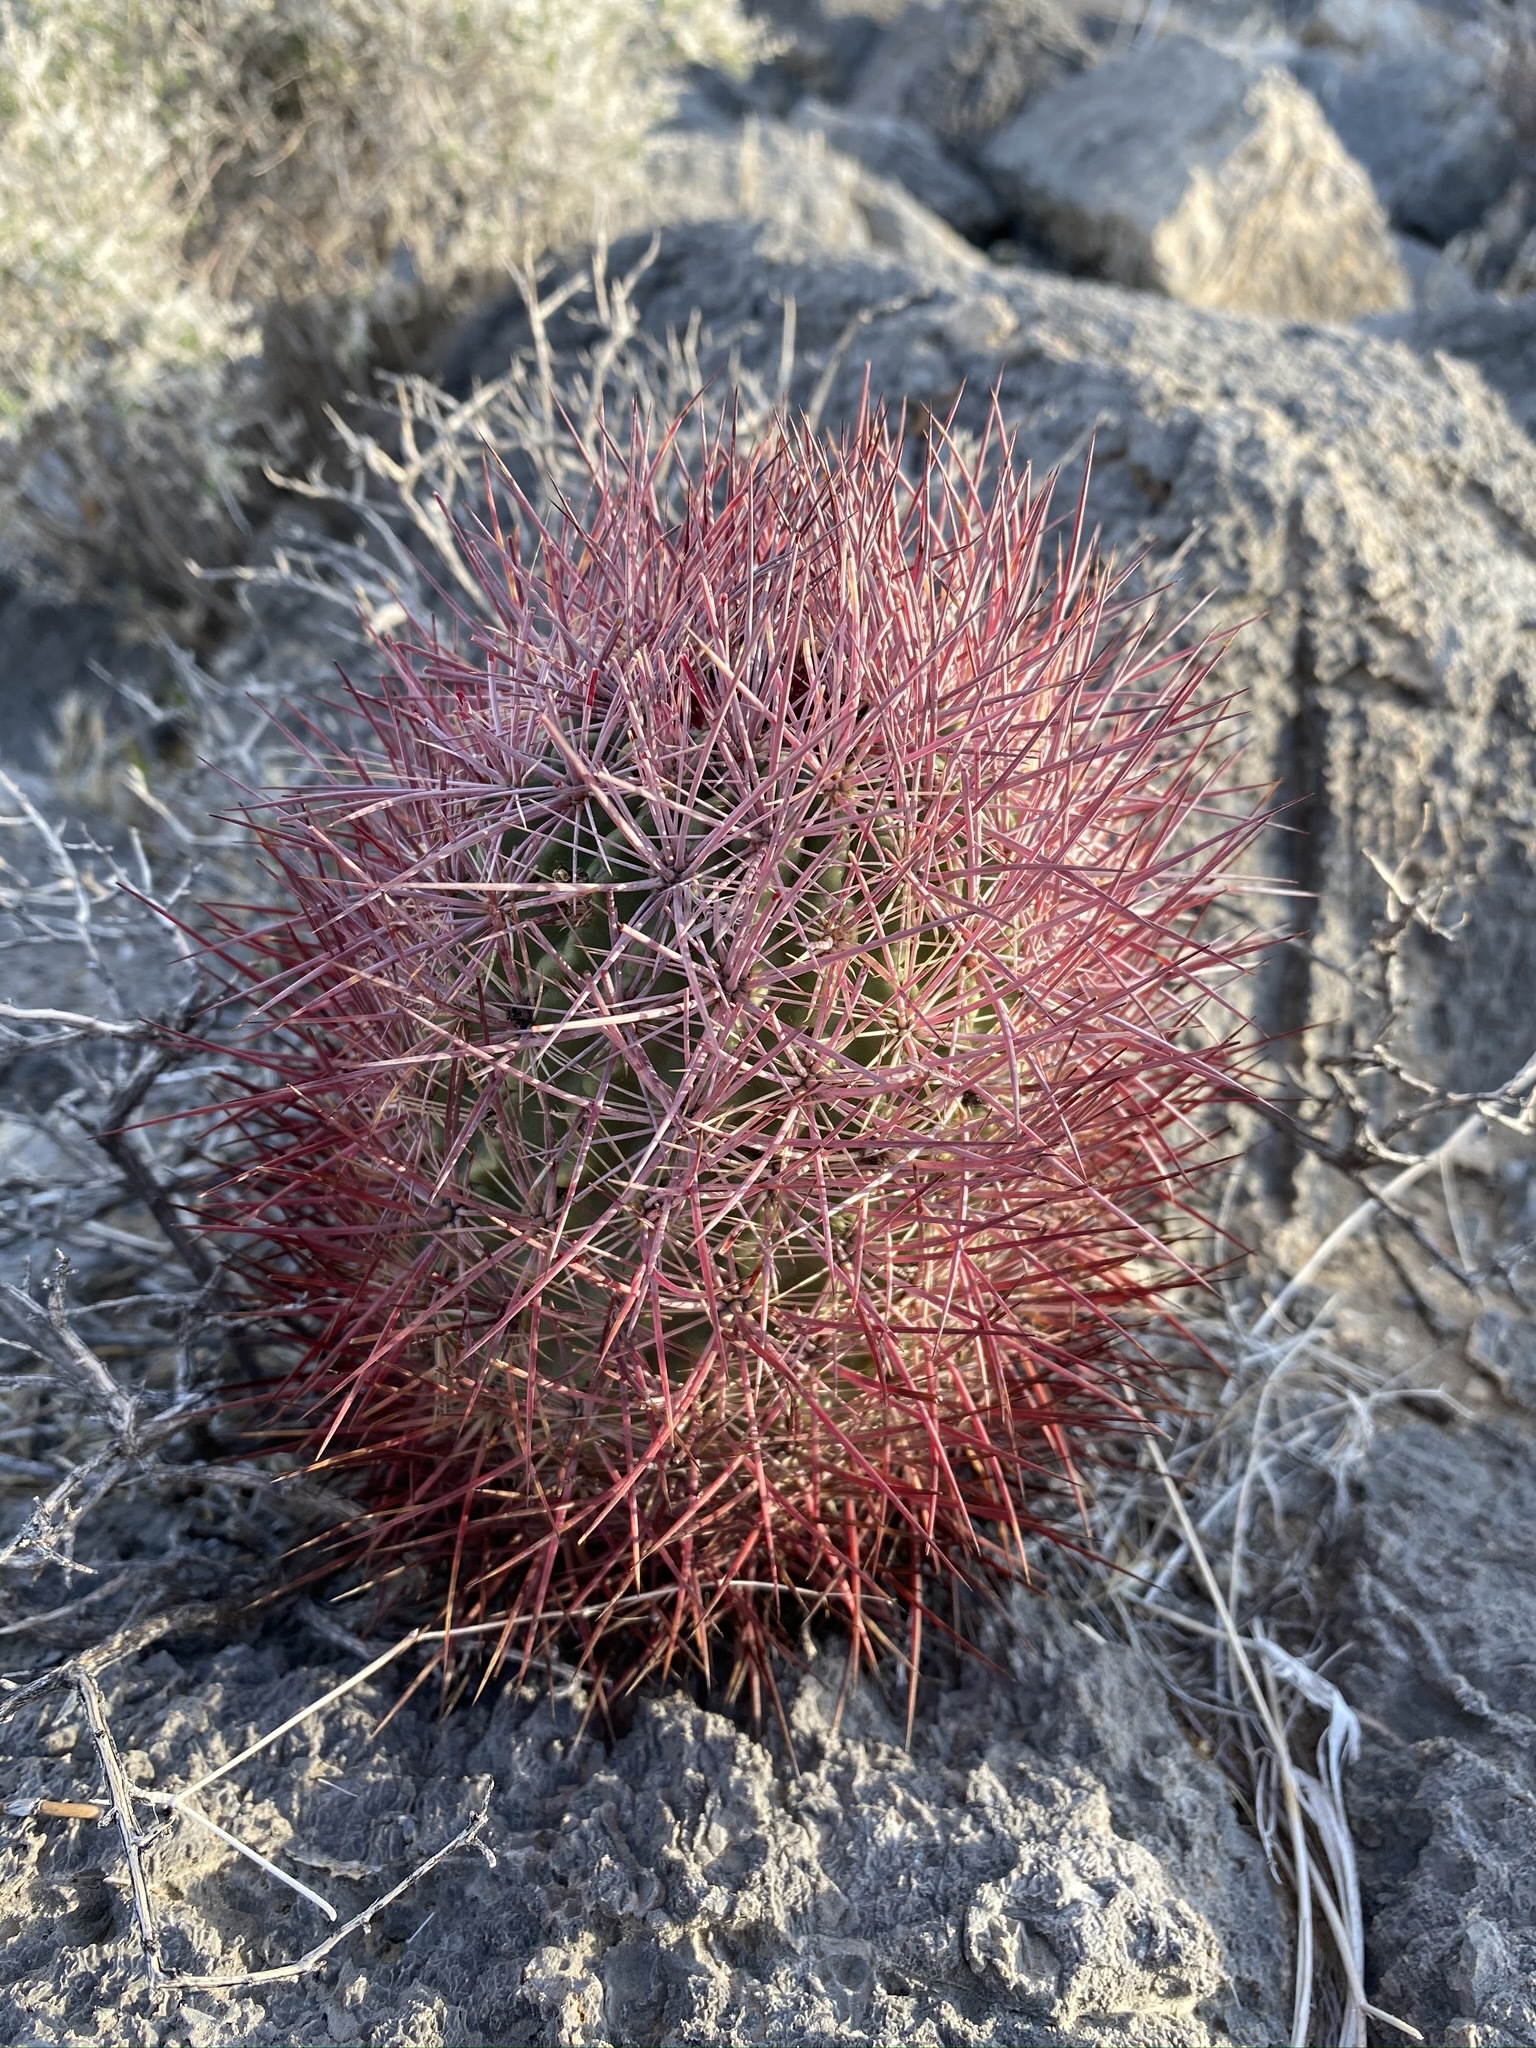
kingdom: Plantae
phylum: Tracheophyta
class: Magnoliopsida
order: Caryophyllales
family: Cactaceae
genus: Sclerocactus
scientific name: Sclerocactus johnsonii
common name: Eight-spine fishhook cactus
